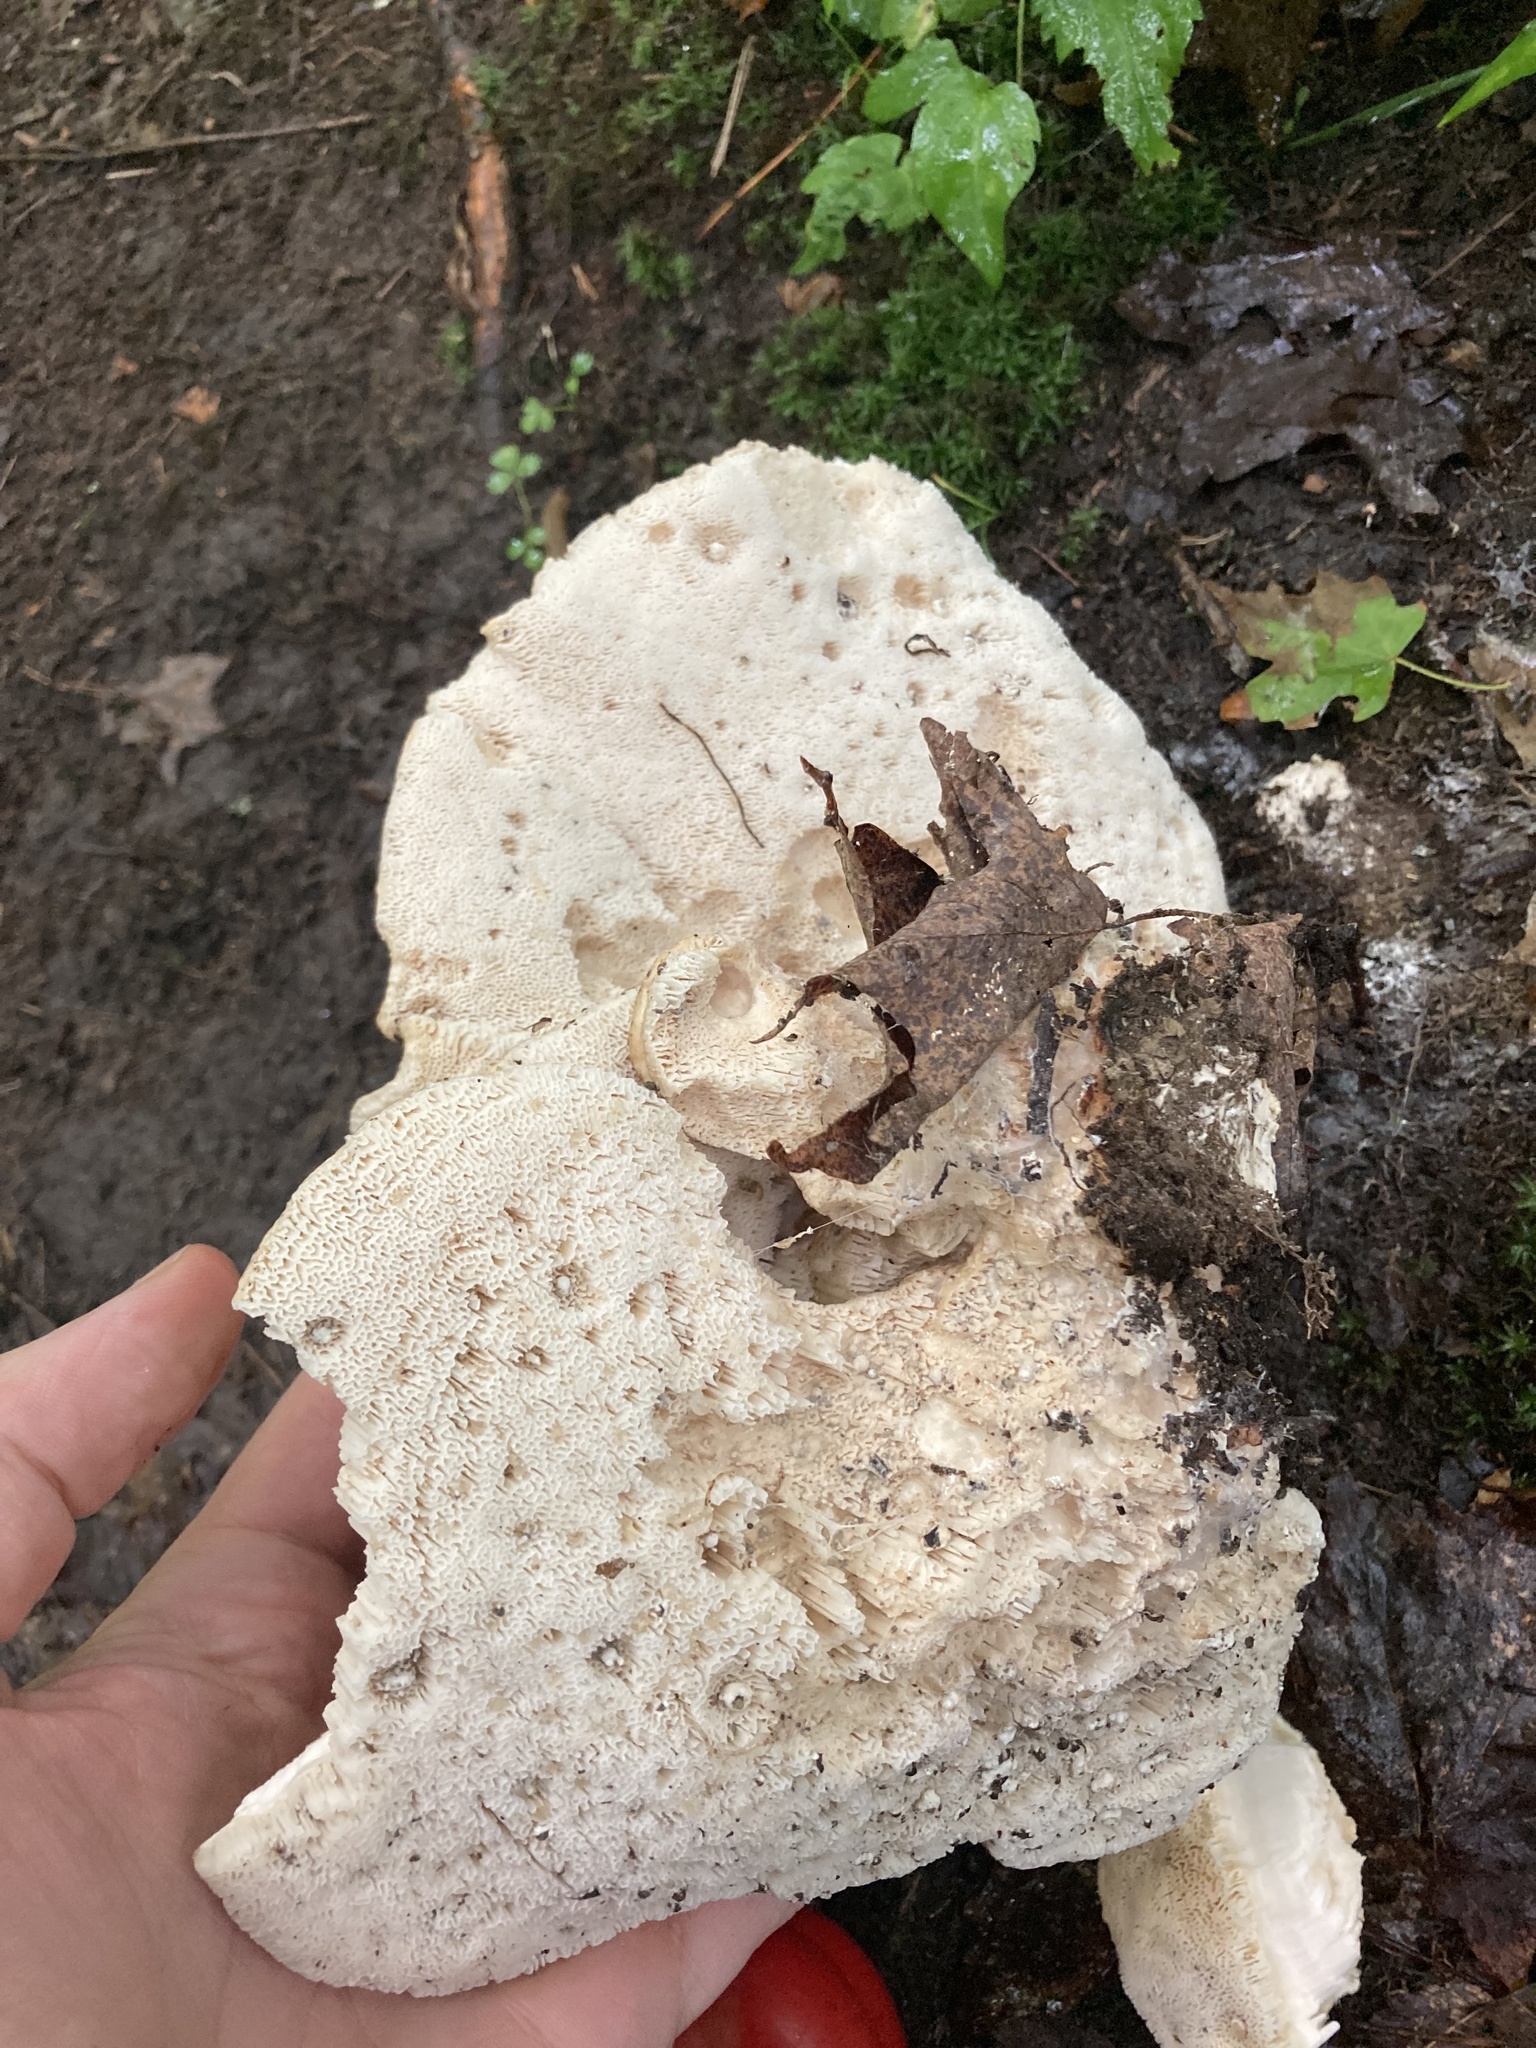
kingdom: Fungi
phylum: Basidiomycota
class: Agaricomycetes
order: Russulales
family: Bondarzewiaceae
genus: Bondarzewia
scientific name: Bondarzewia berkeleyi
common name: Berkeley's polypore
